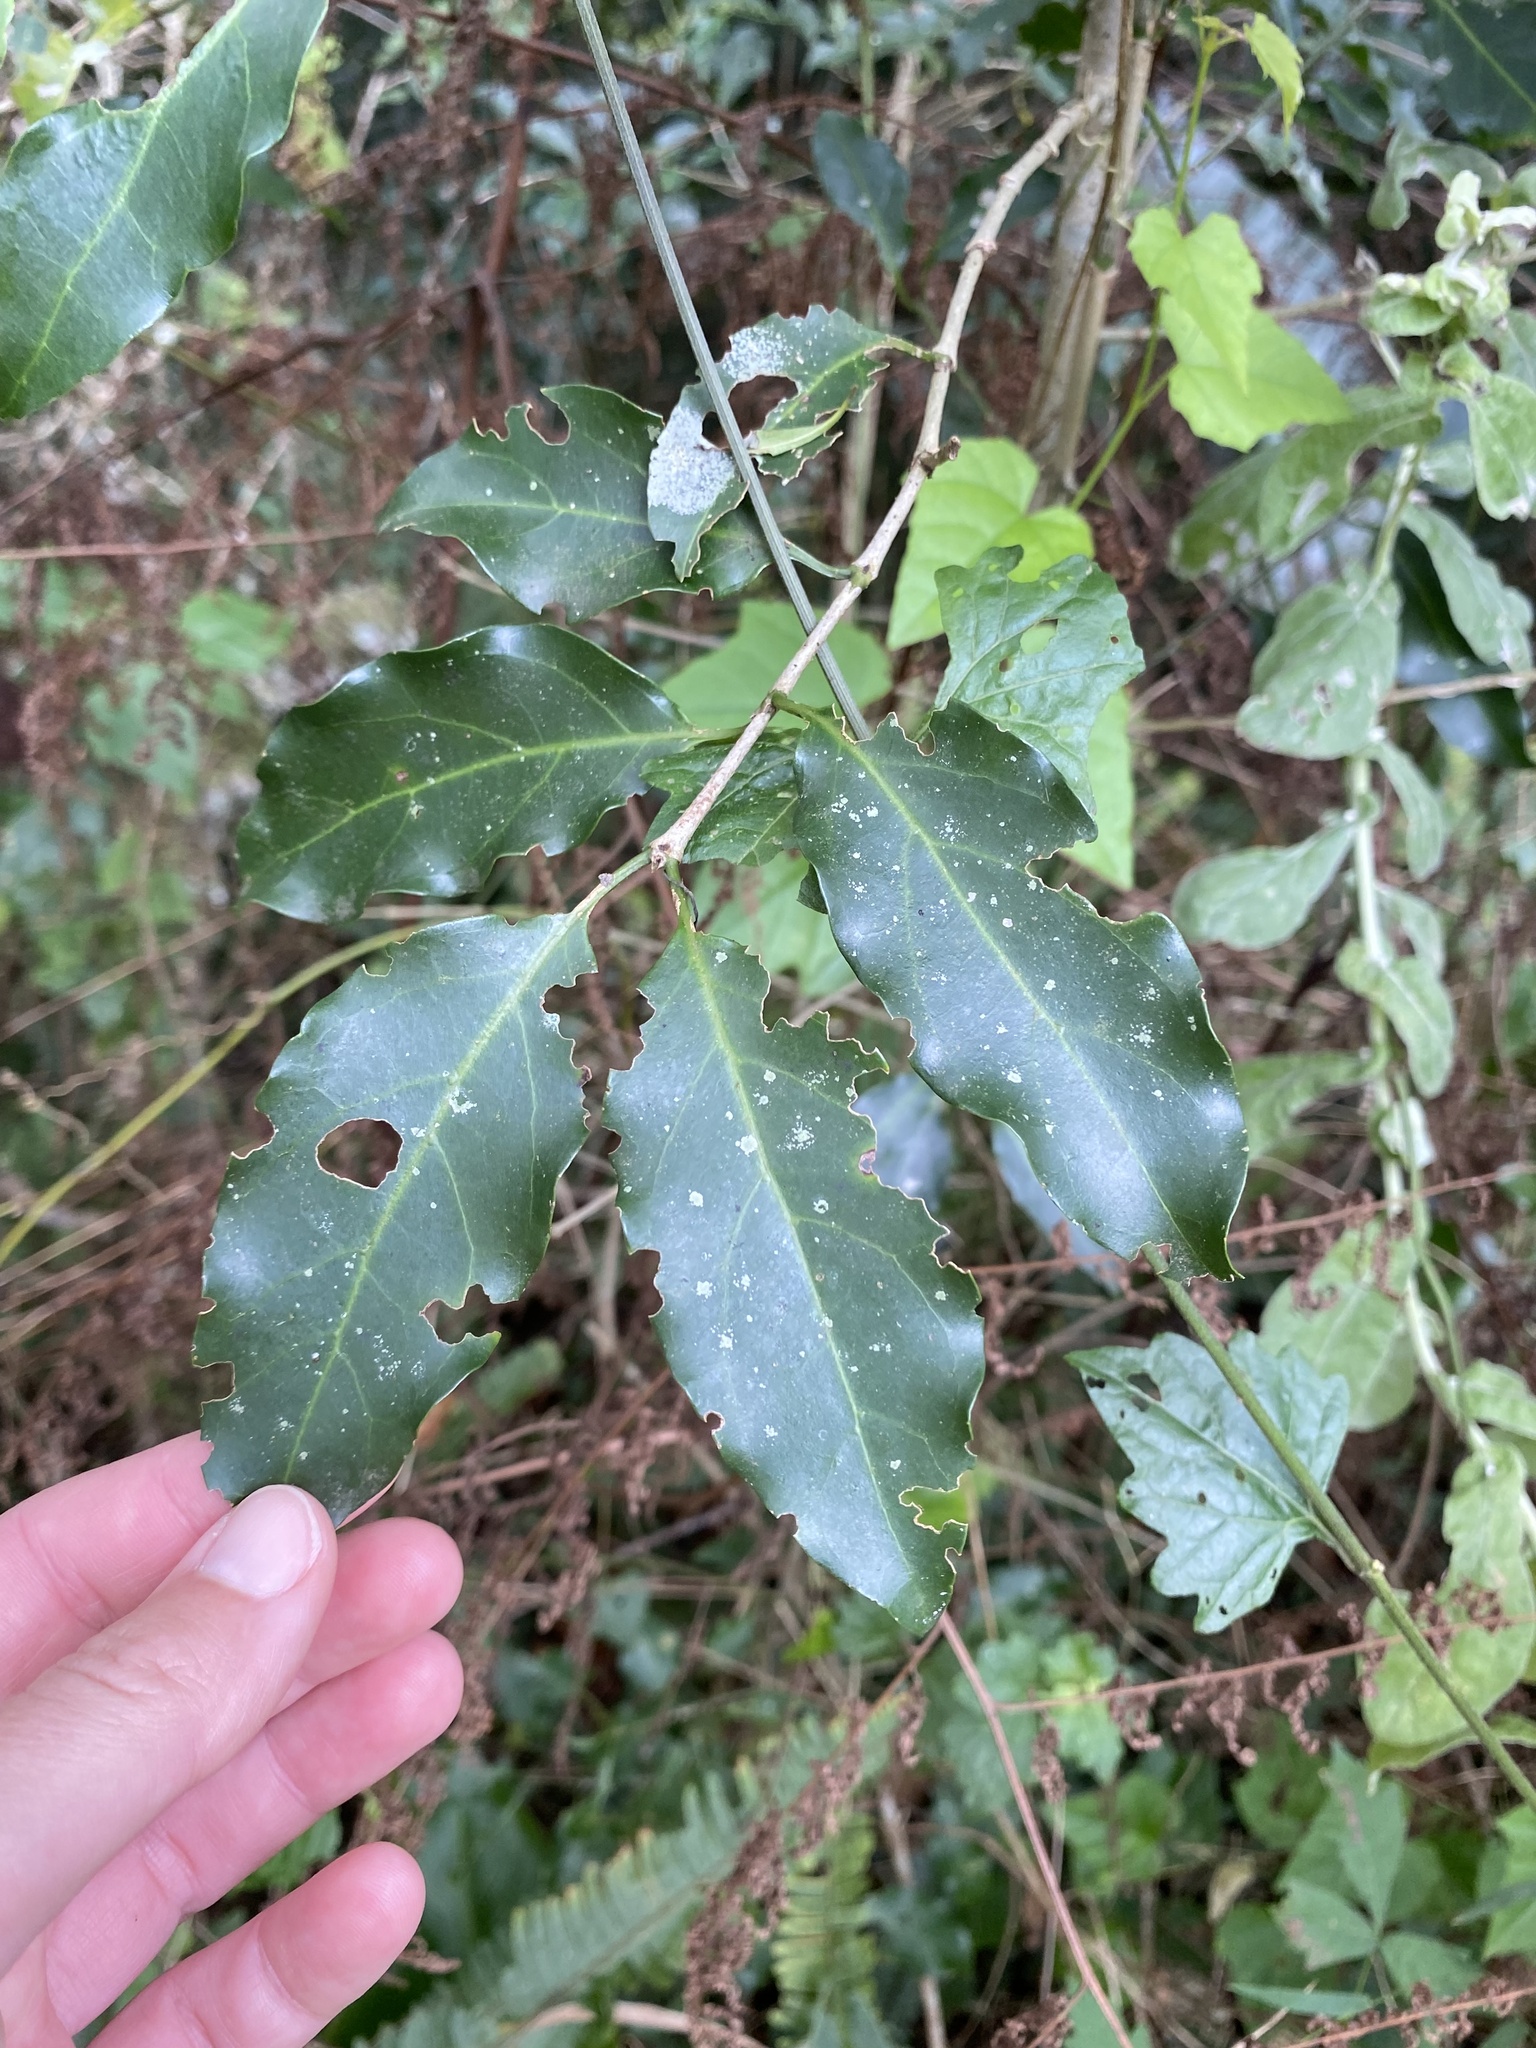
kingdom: Plantae
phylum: Tracheophyta
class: Magnoliopsida
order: Gentianales
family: Rubiaceae
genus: Canthium
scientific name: Canthium inerme
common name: Unarmed turkey-berry
